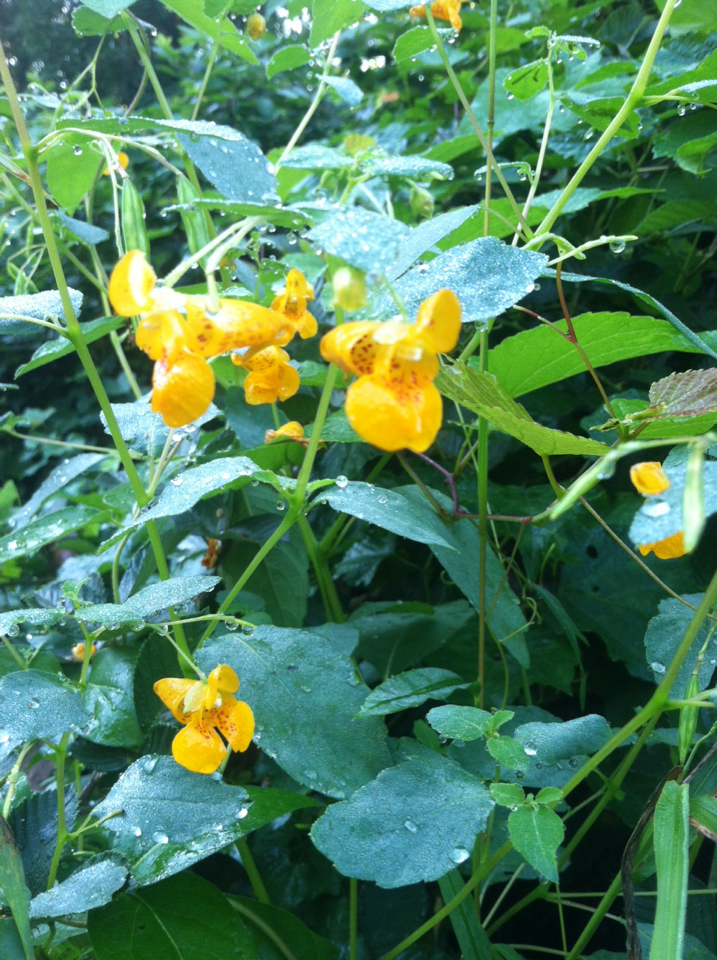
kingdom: Plantae
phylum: Tracheophyta
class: Magnoliopsida
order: Ericales
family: Balsaminaceae
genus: Impatiens
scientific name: Impatiens capensis
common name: Orange balsam
